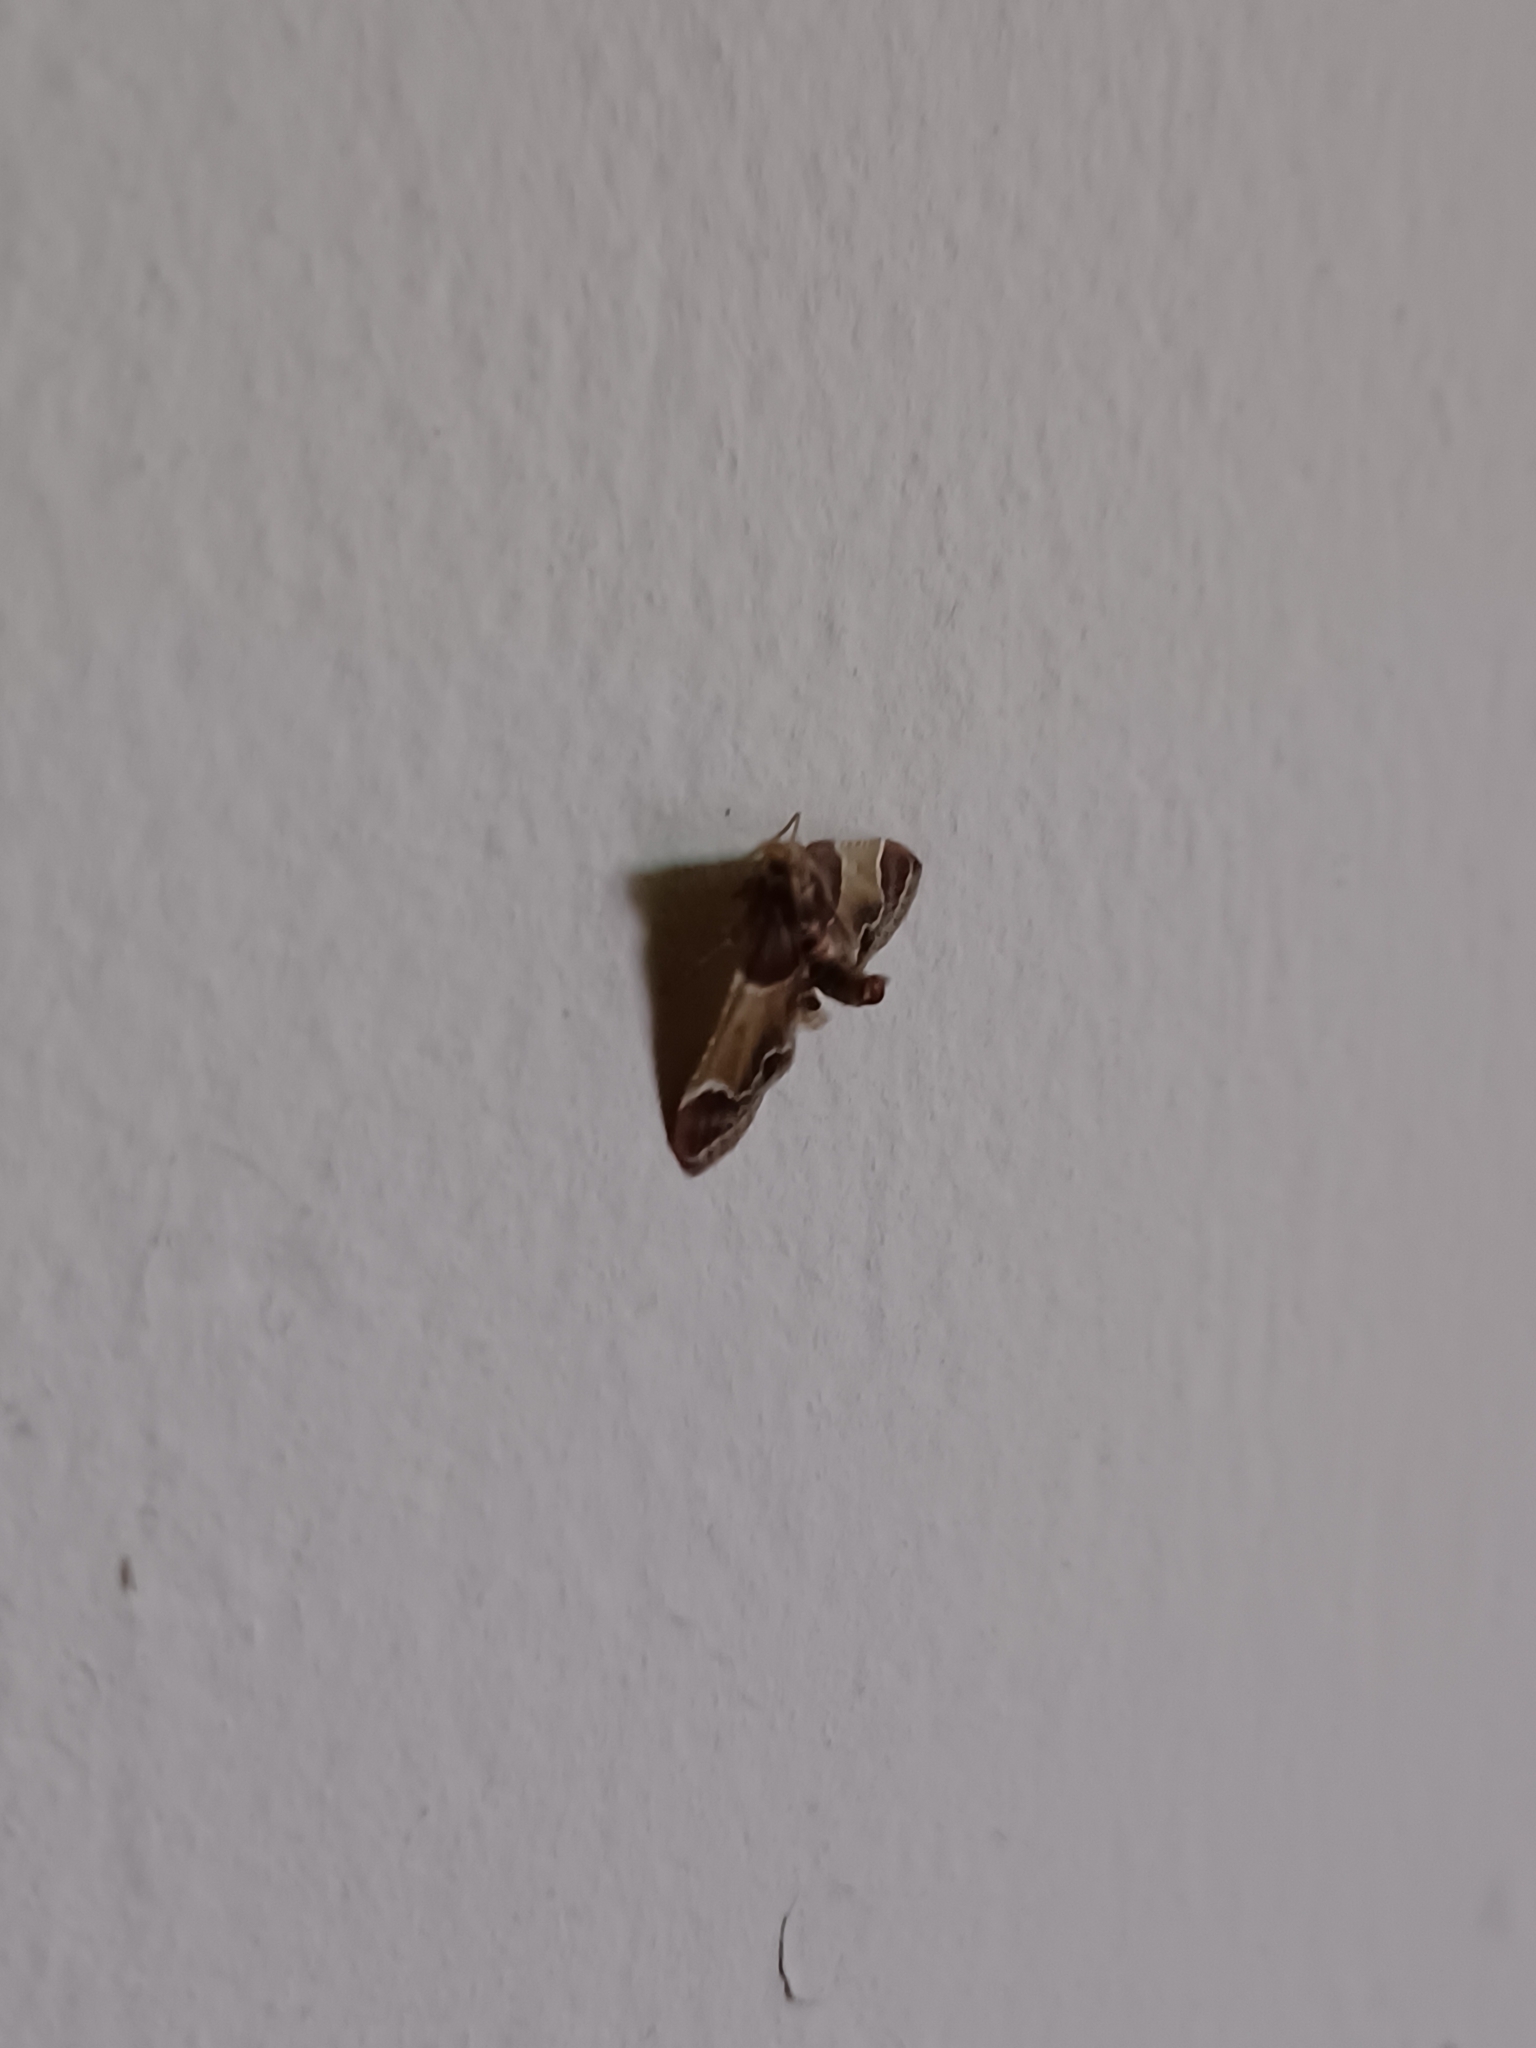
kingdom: Animalia
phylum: Arthropoda
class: Insecta
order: Lepidoptera
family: Pyralidae
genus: Pyralis
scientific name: Pyralis farinalis
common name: Meal moth
